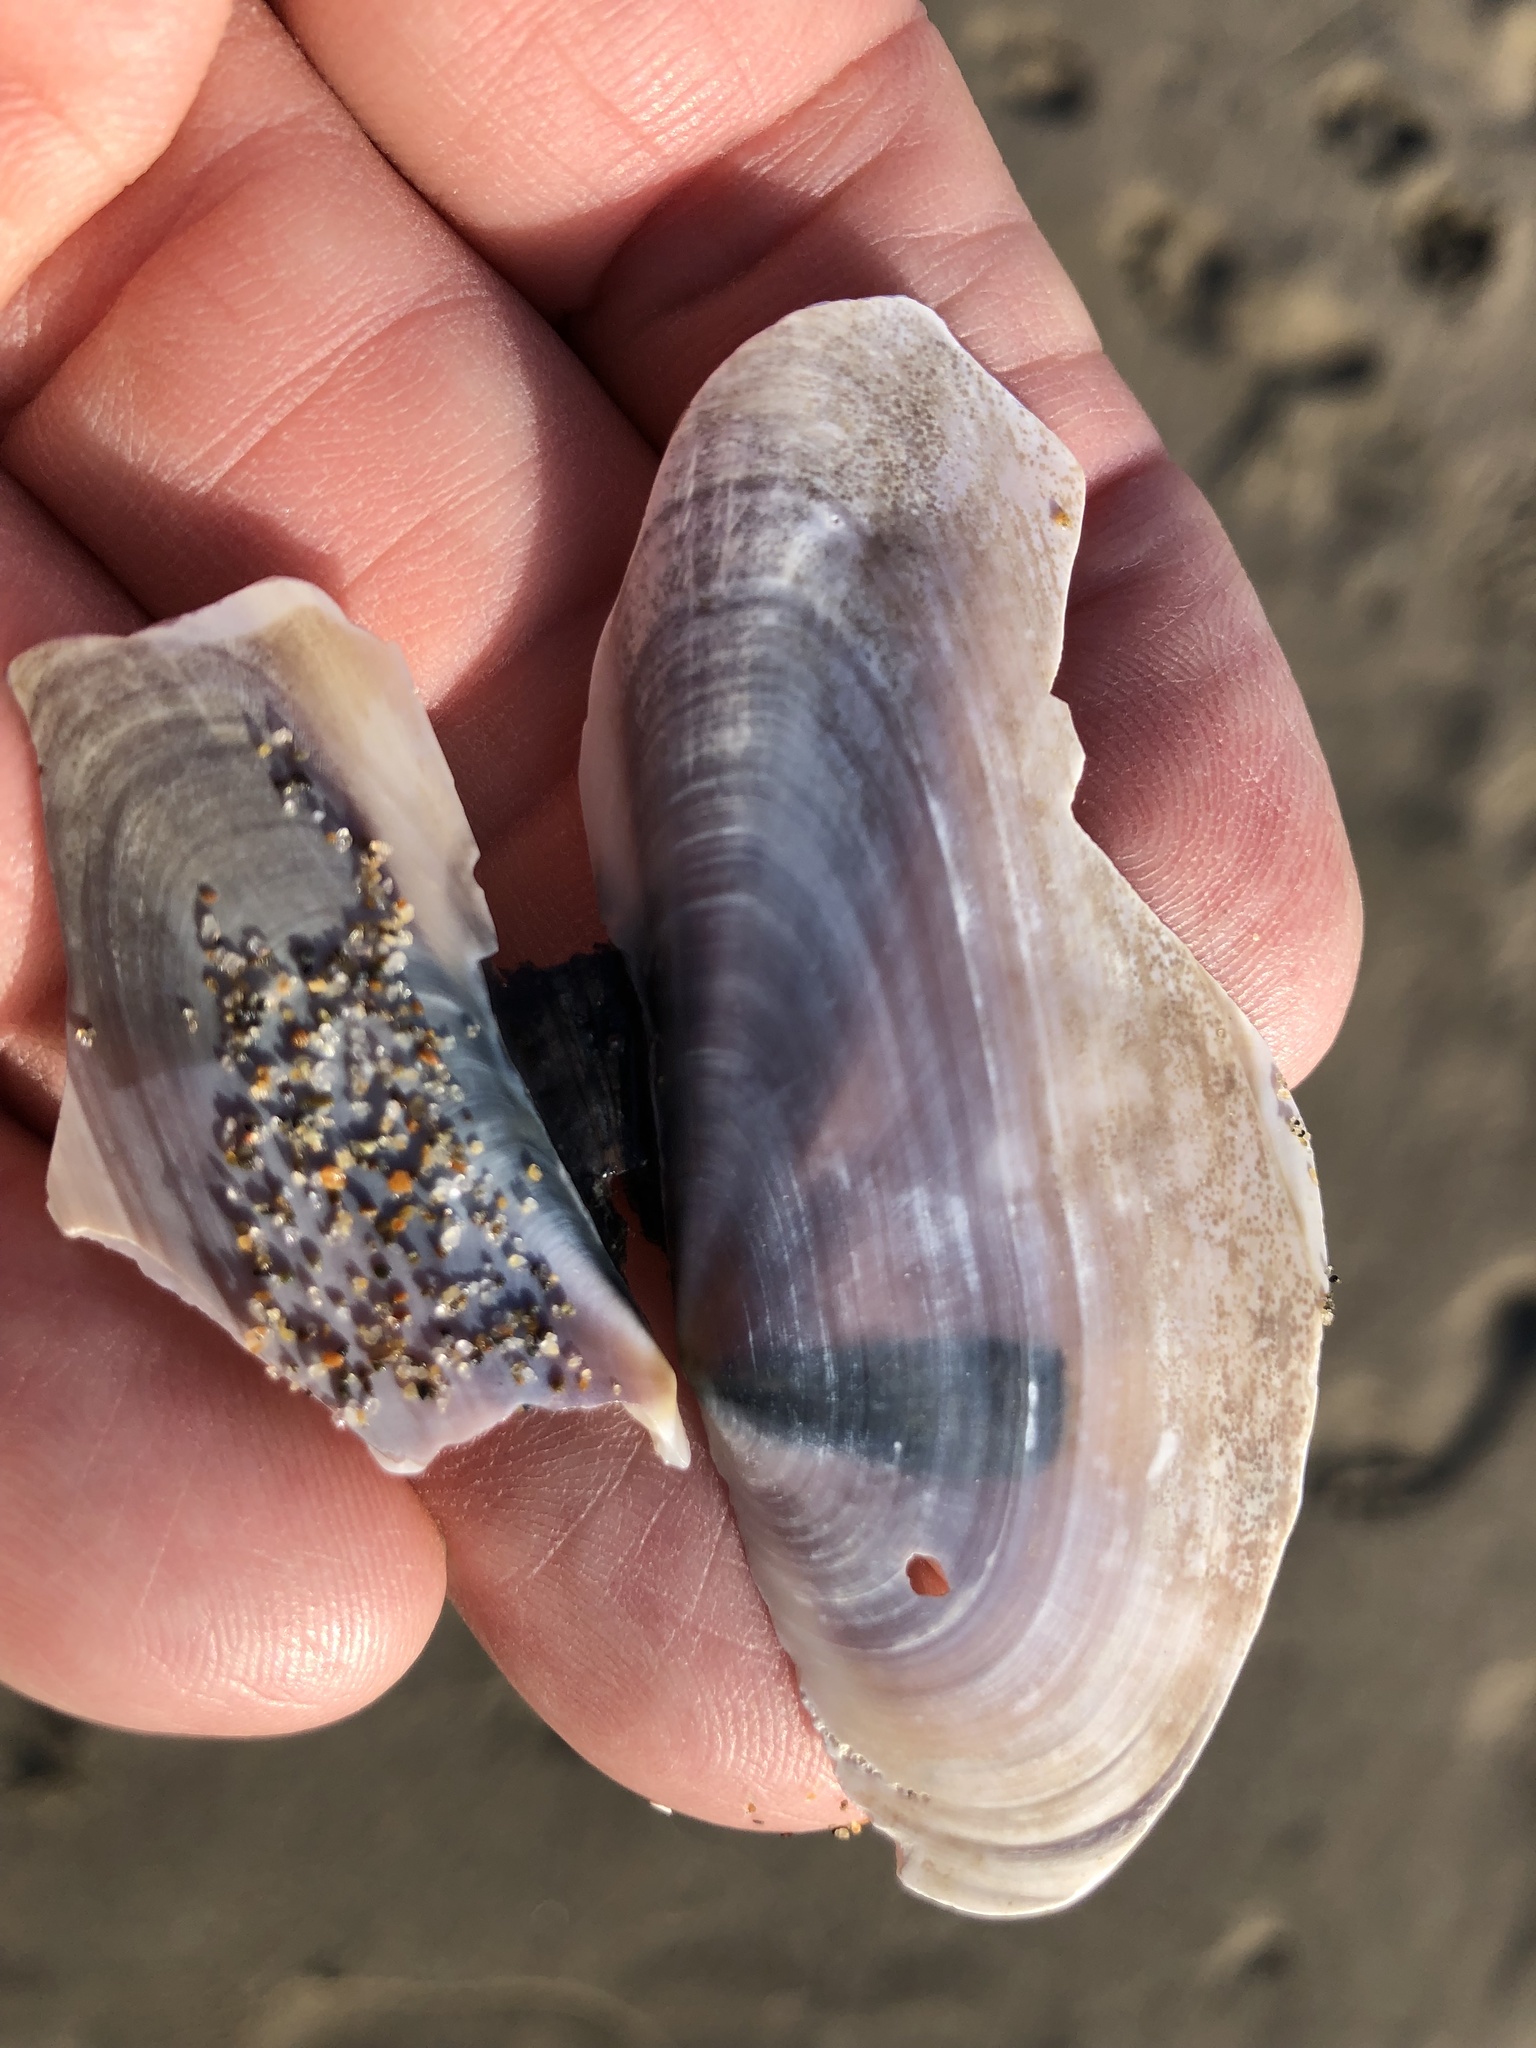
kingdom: Animalia
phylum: Mollusca
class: Bivalvia
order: Adapedonta
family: Pharidae
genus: Siliqua
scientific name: Siliqua patula
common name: Pacific razor clam
